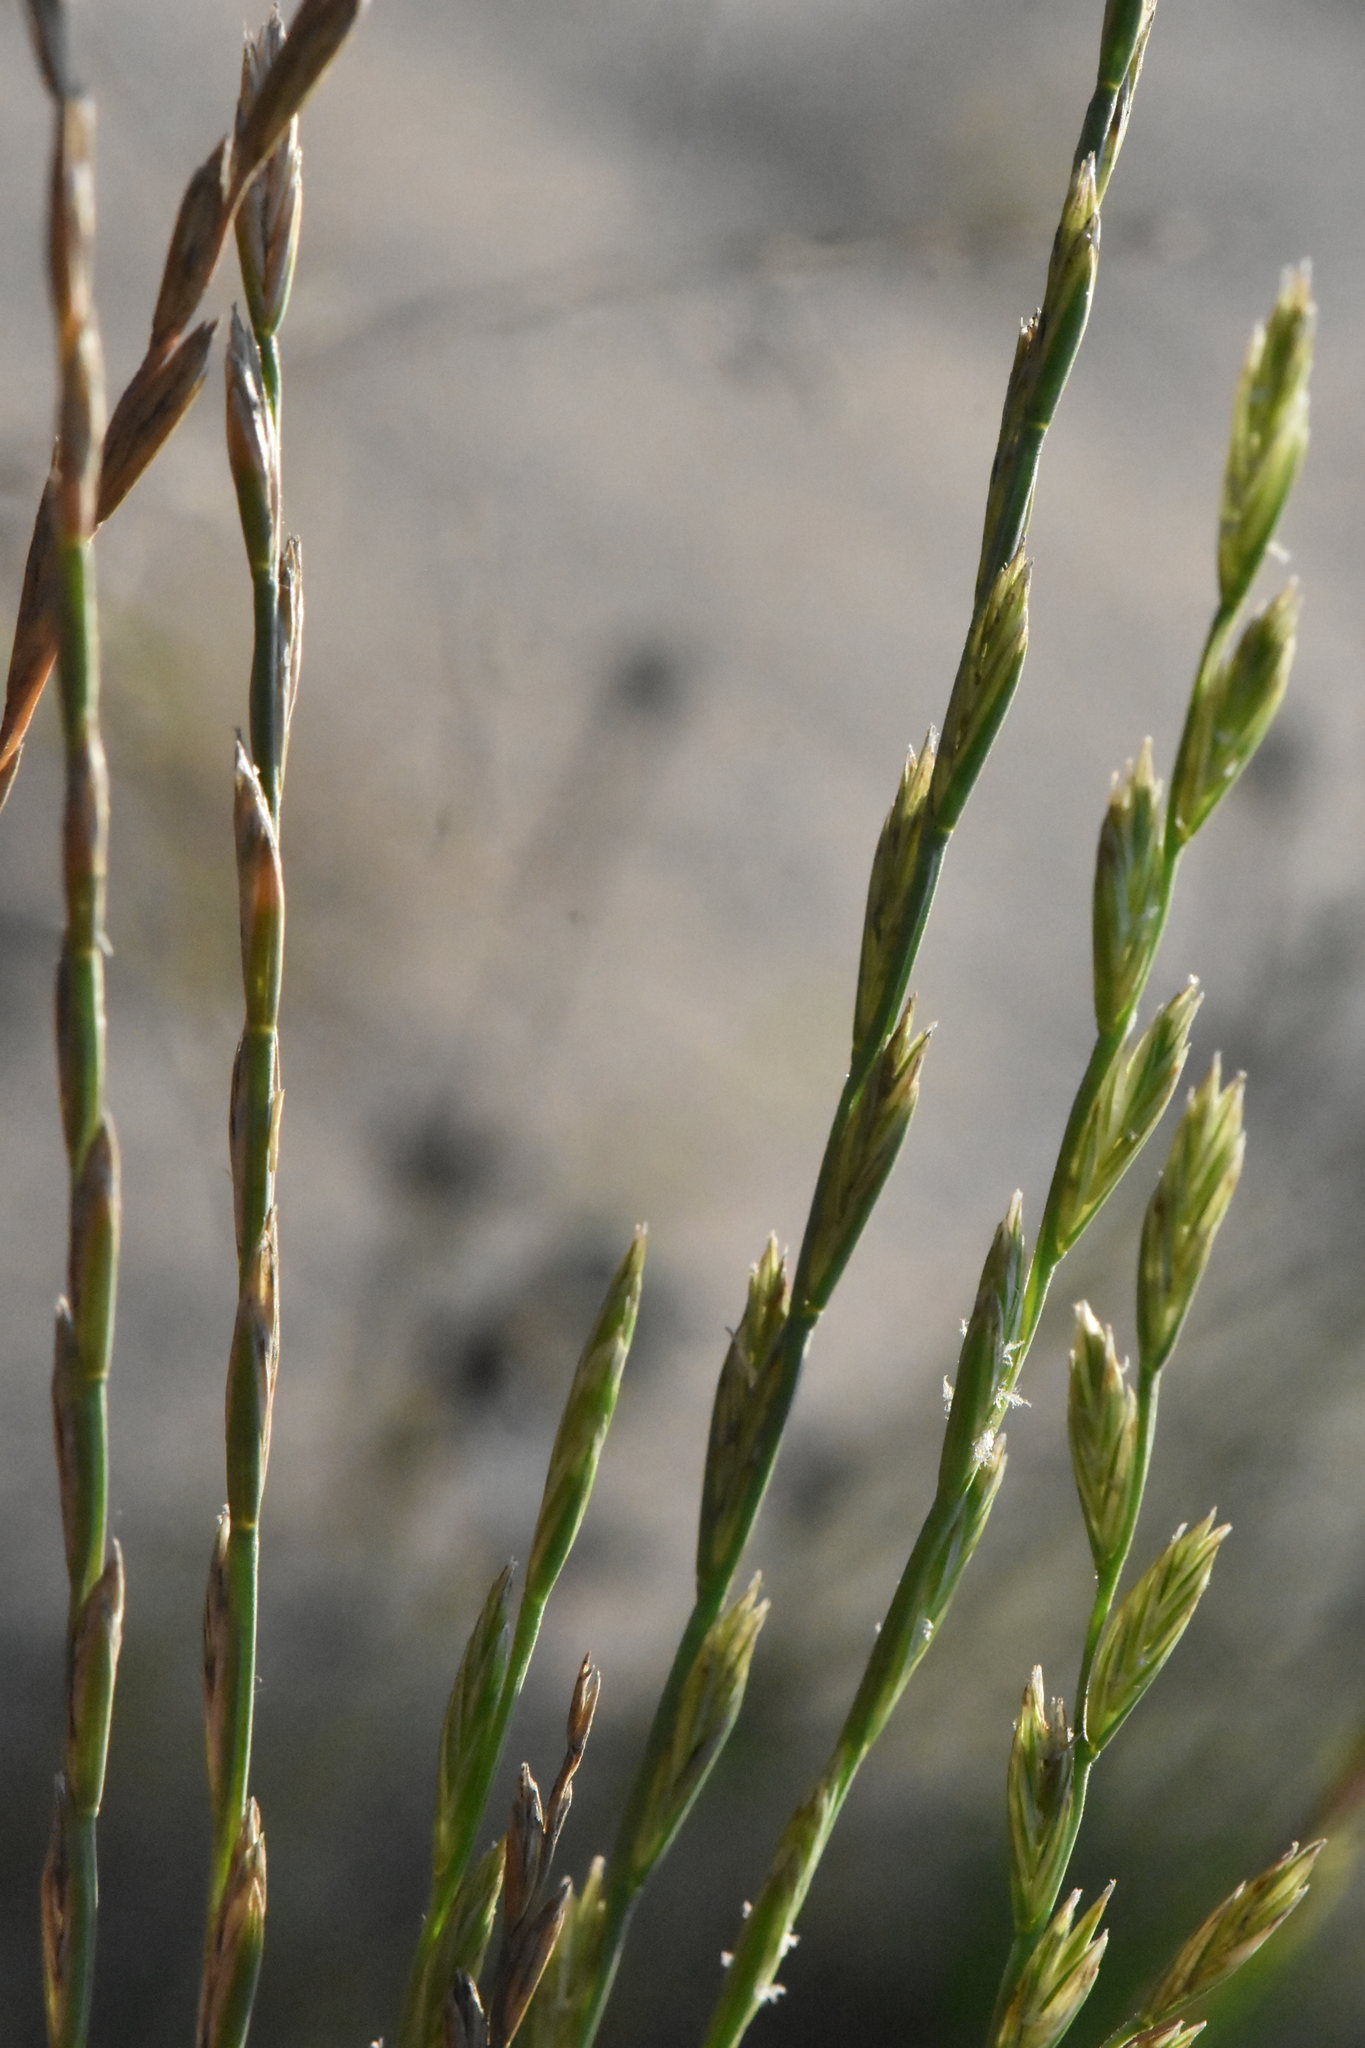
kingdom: Plantae
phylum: Tracheophyta
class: Liliopsida
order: Poales
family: Poaceae
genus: Lolium
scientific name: Lolium perenne
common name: Perennial ryegrass
